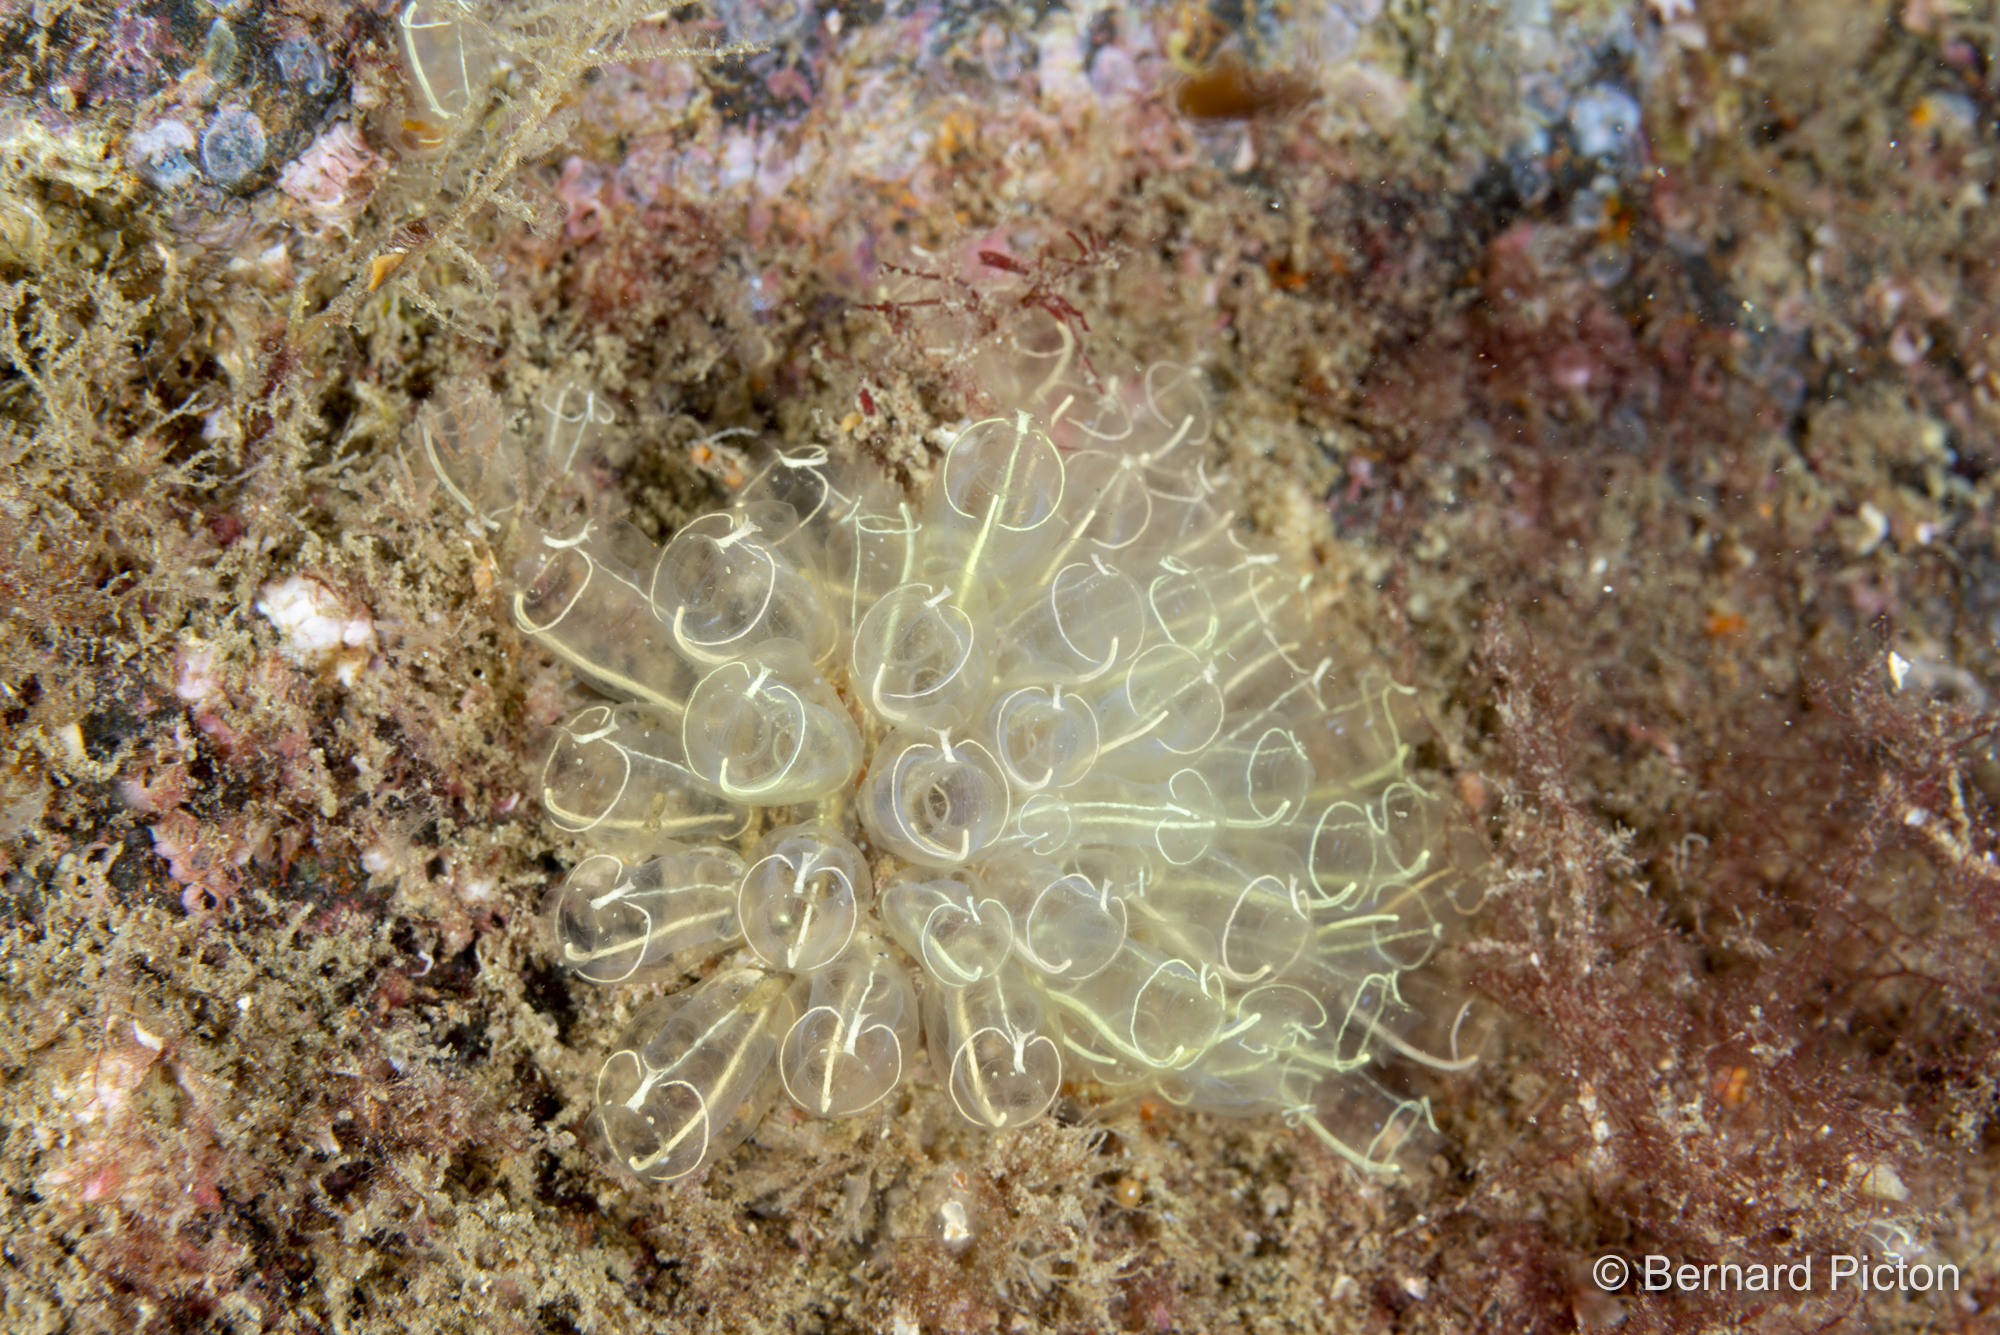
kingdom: Animalia
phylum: Chordata
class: Ascidiacea
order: Aplousobranchia
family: Clavelinidae
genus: Clavelina
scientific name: Clavelina lepadiformis
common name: Light bulb tunicate
